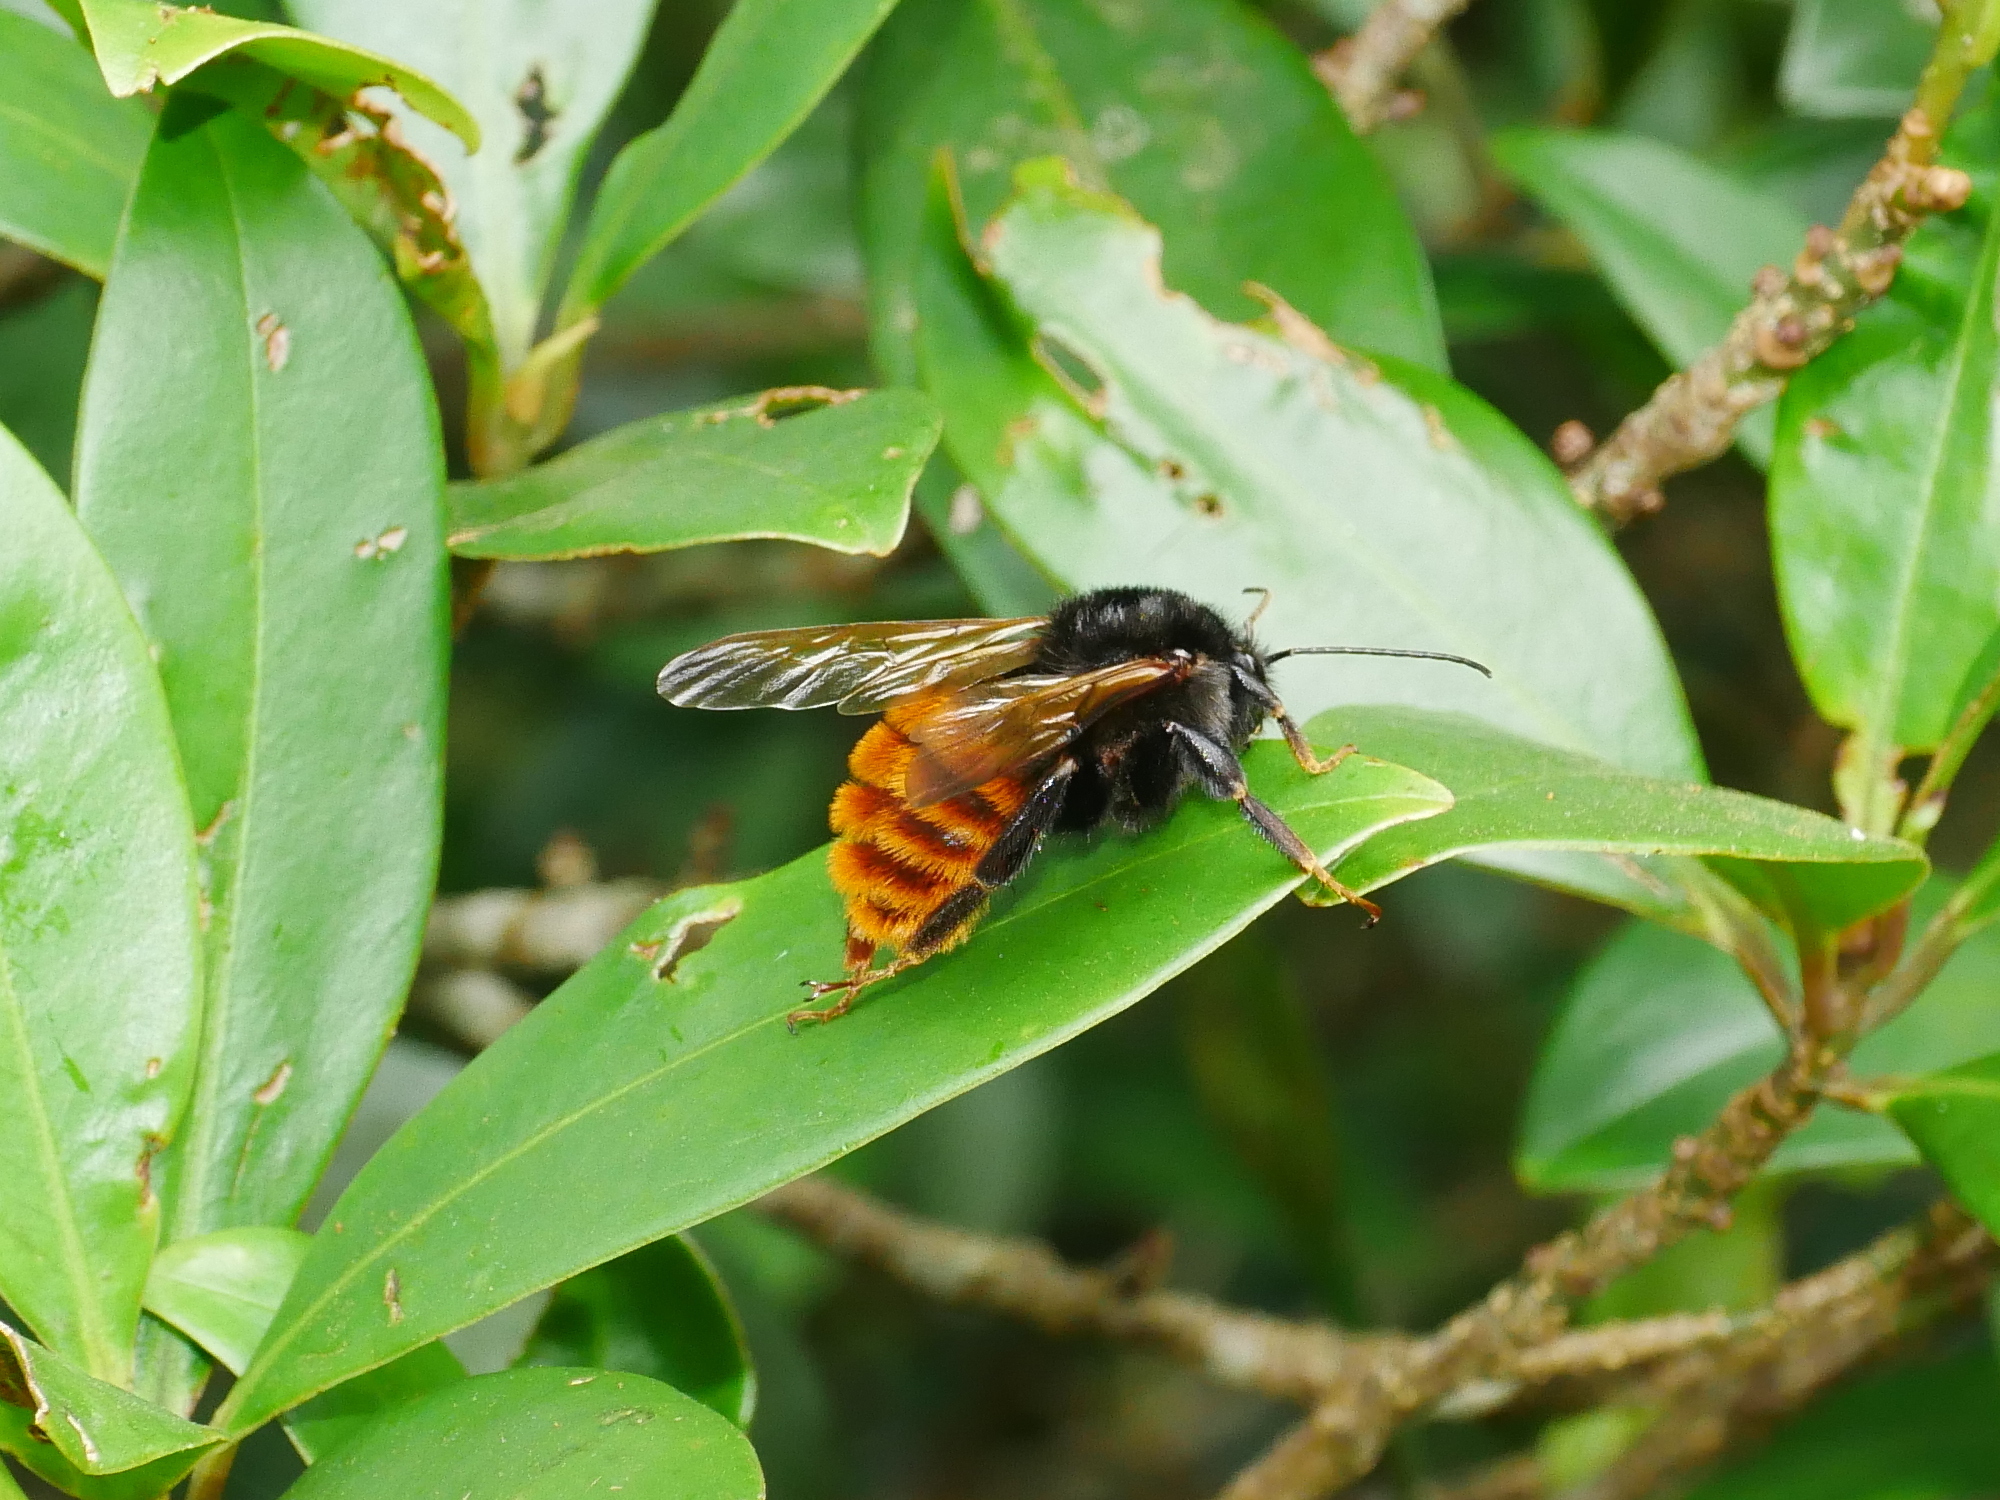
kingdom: Animalia
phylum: Arthropoda
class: Insecta
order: Hymenoptera
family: Apidae
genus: Bombus
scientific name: Bombus bicoloratus
